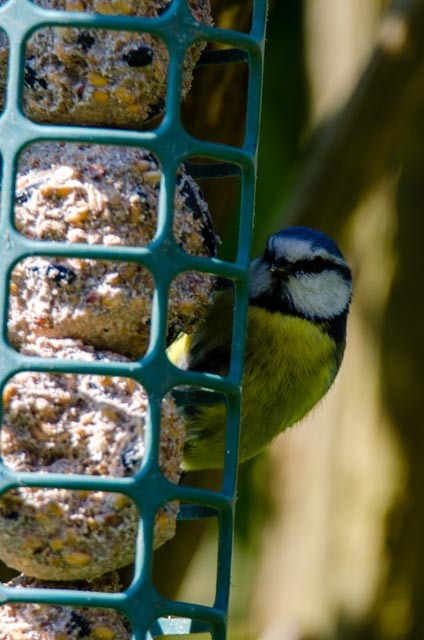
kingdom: Animalia
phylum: Chordata
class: Aves
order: Passeriformes
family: Paridae
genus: Cyanistes
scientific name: Cyanistes caeruleus
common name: Eurasian blue tit
